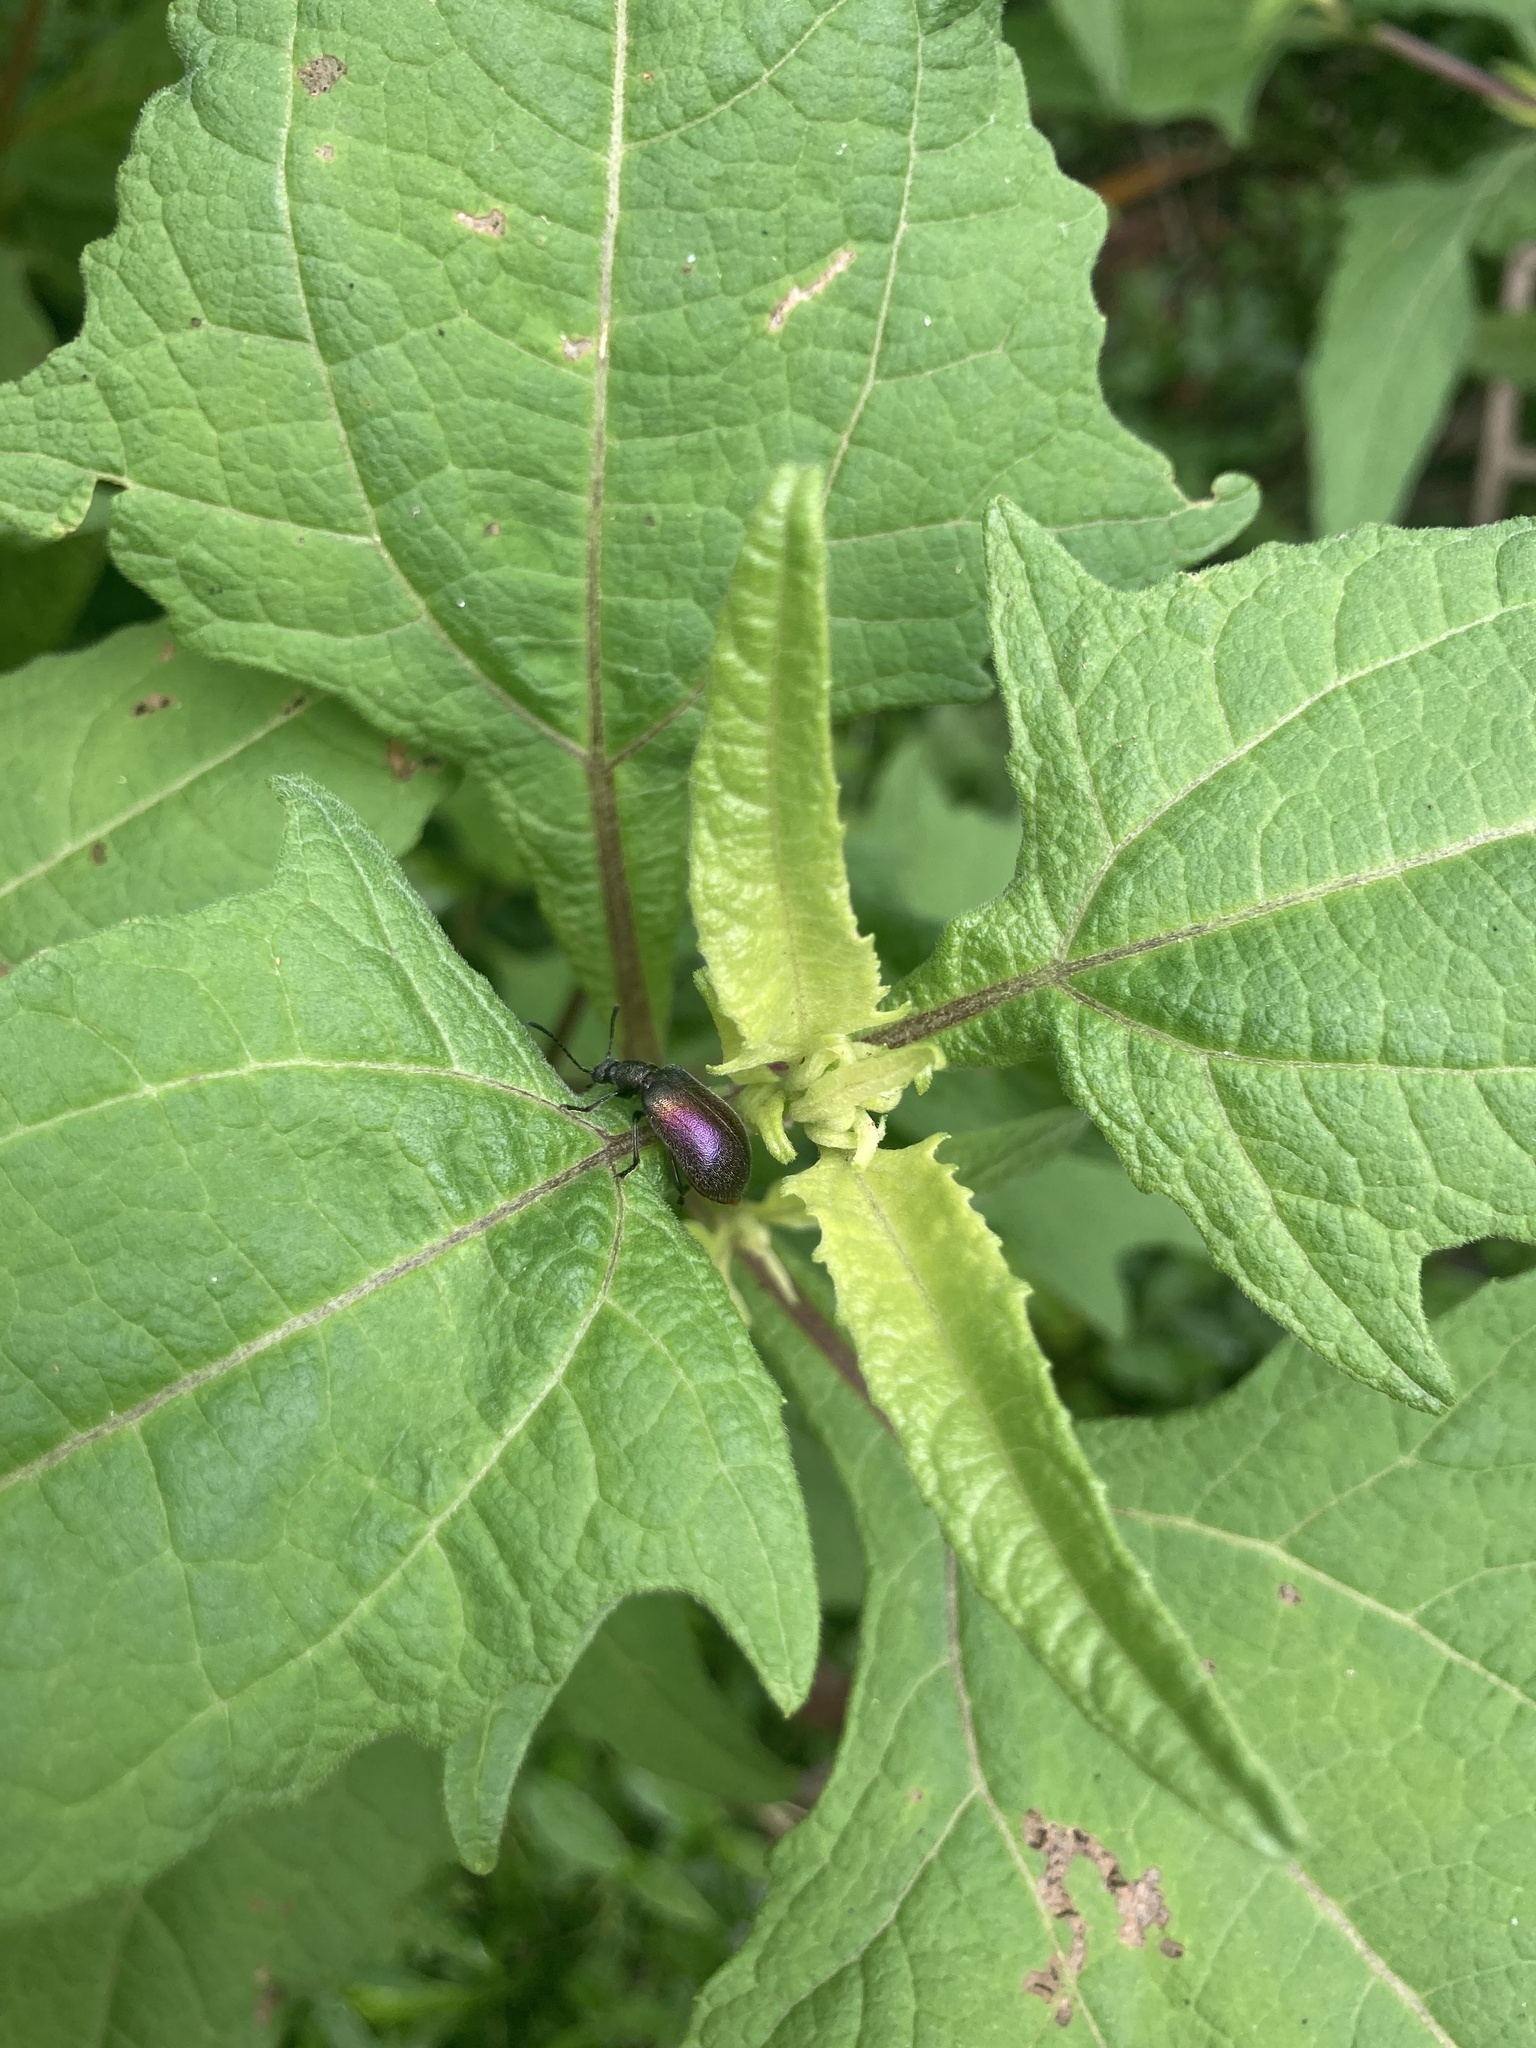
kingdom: Animalia
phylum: Arthropoda
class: Insecta
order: Coleoptera
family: Tenebrionidae
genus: Ecnolagria
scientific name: Ecnolagria
